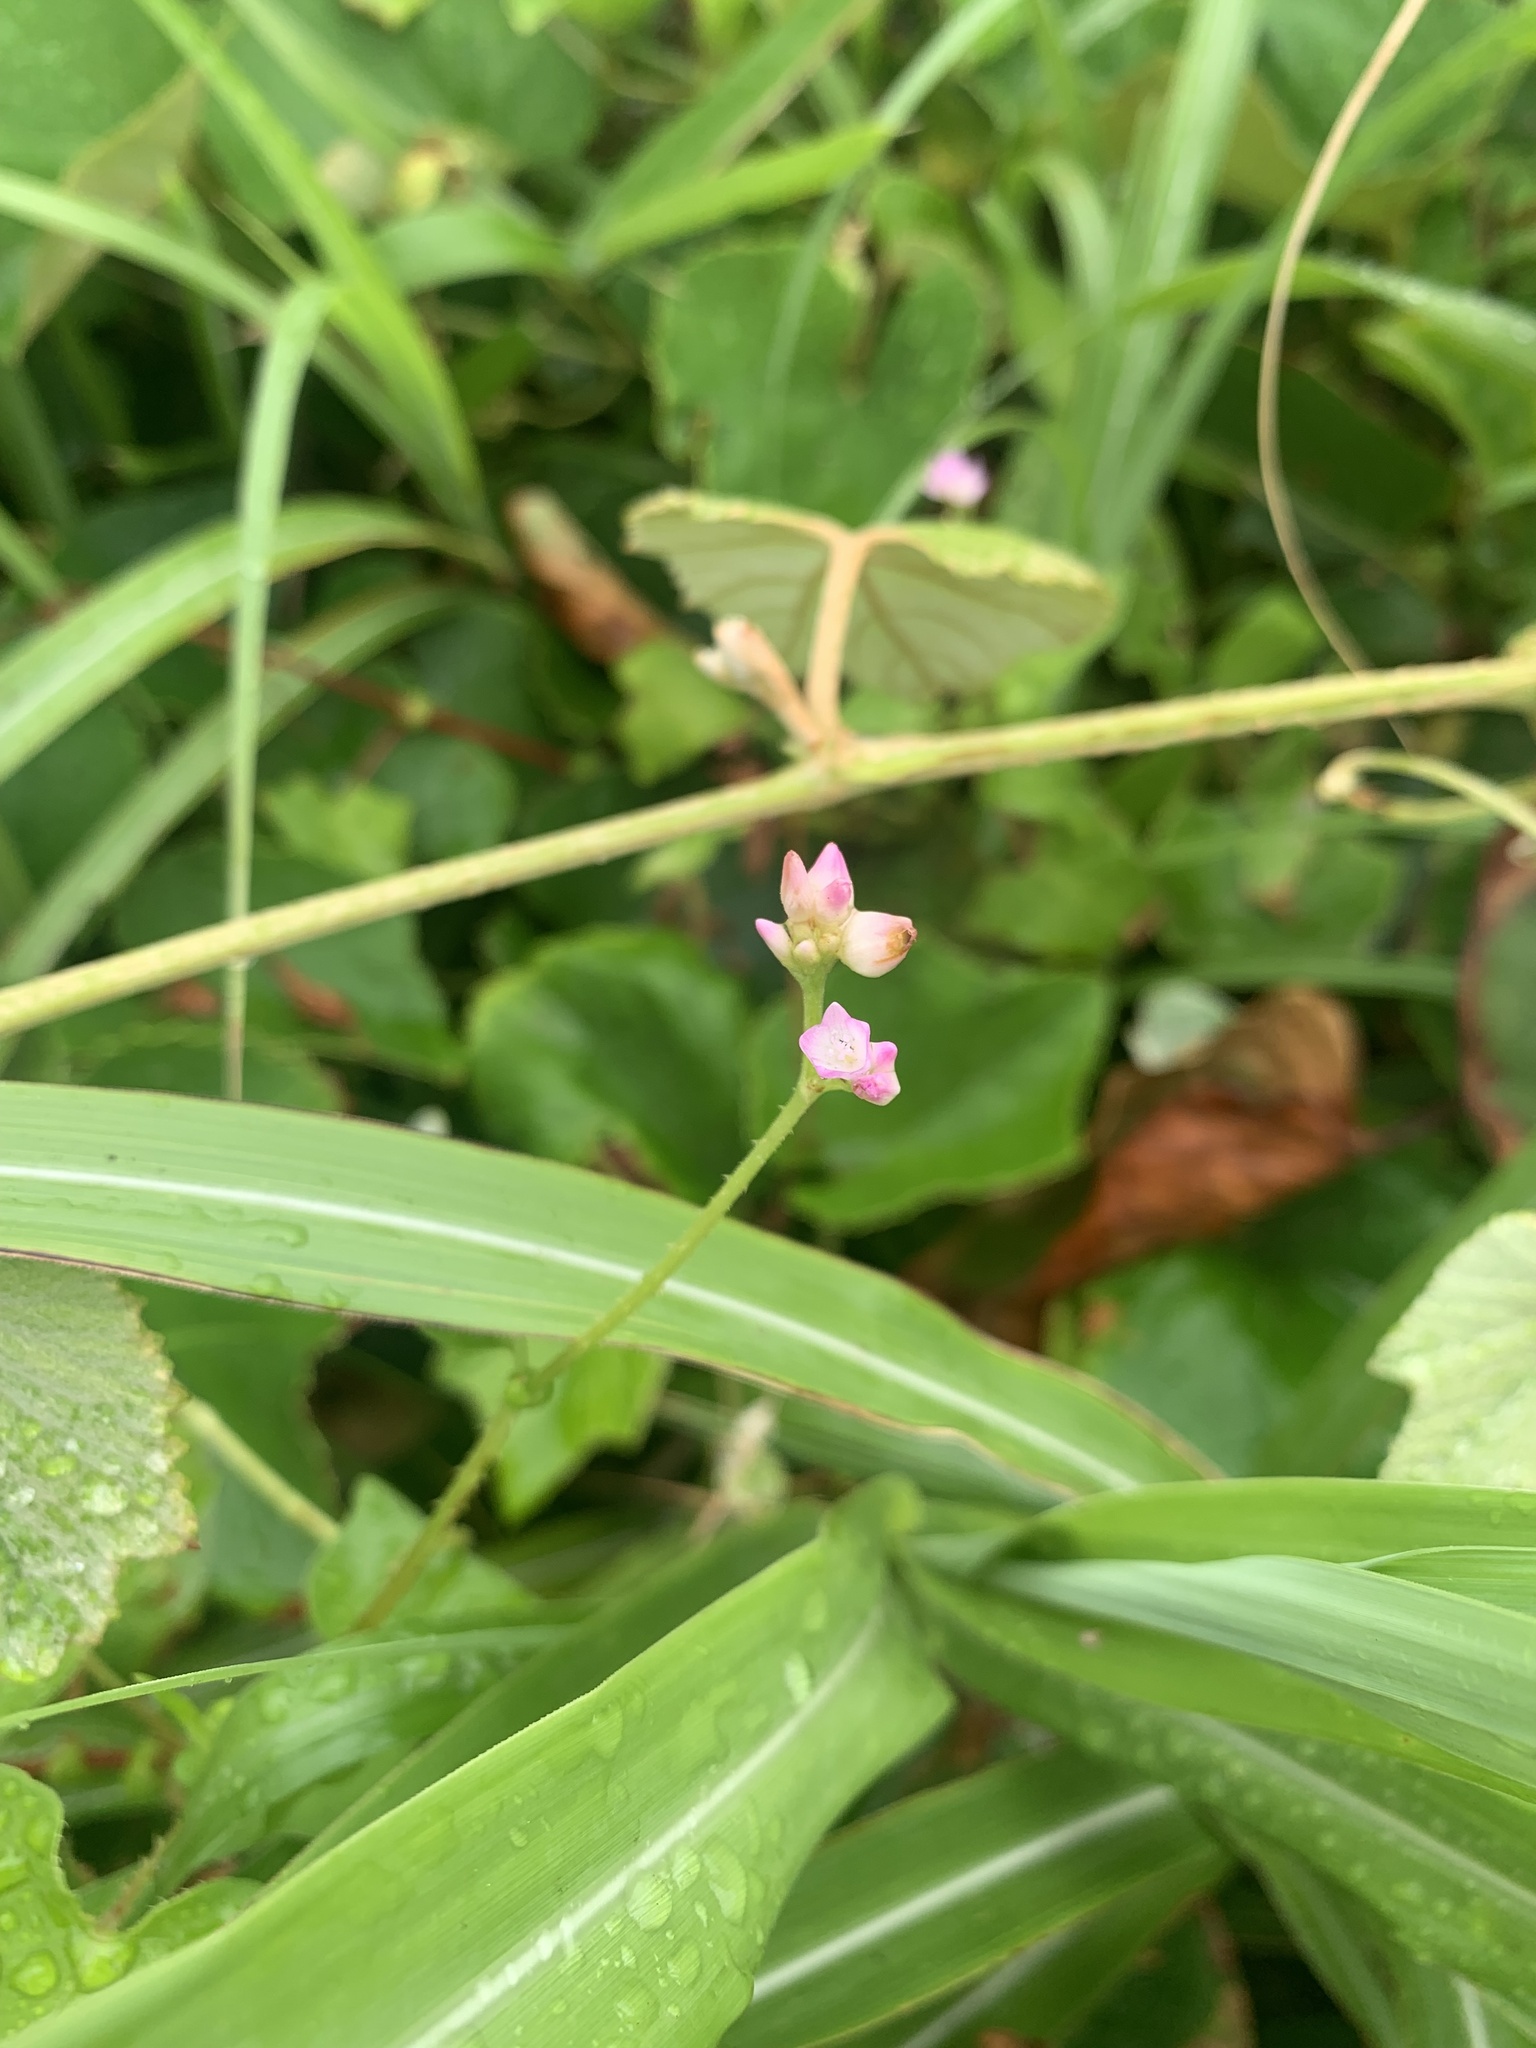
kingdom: Plantae
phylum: Tracheophyta
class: Magnoliopsida
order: Caryophyllales
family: Polygonaceae
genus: Persicaria
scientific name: Persicaria senticosa
